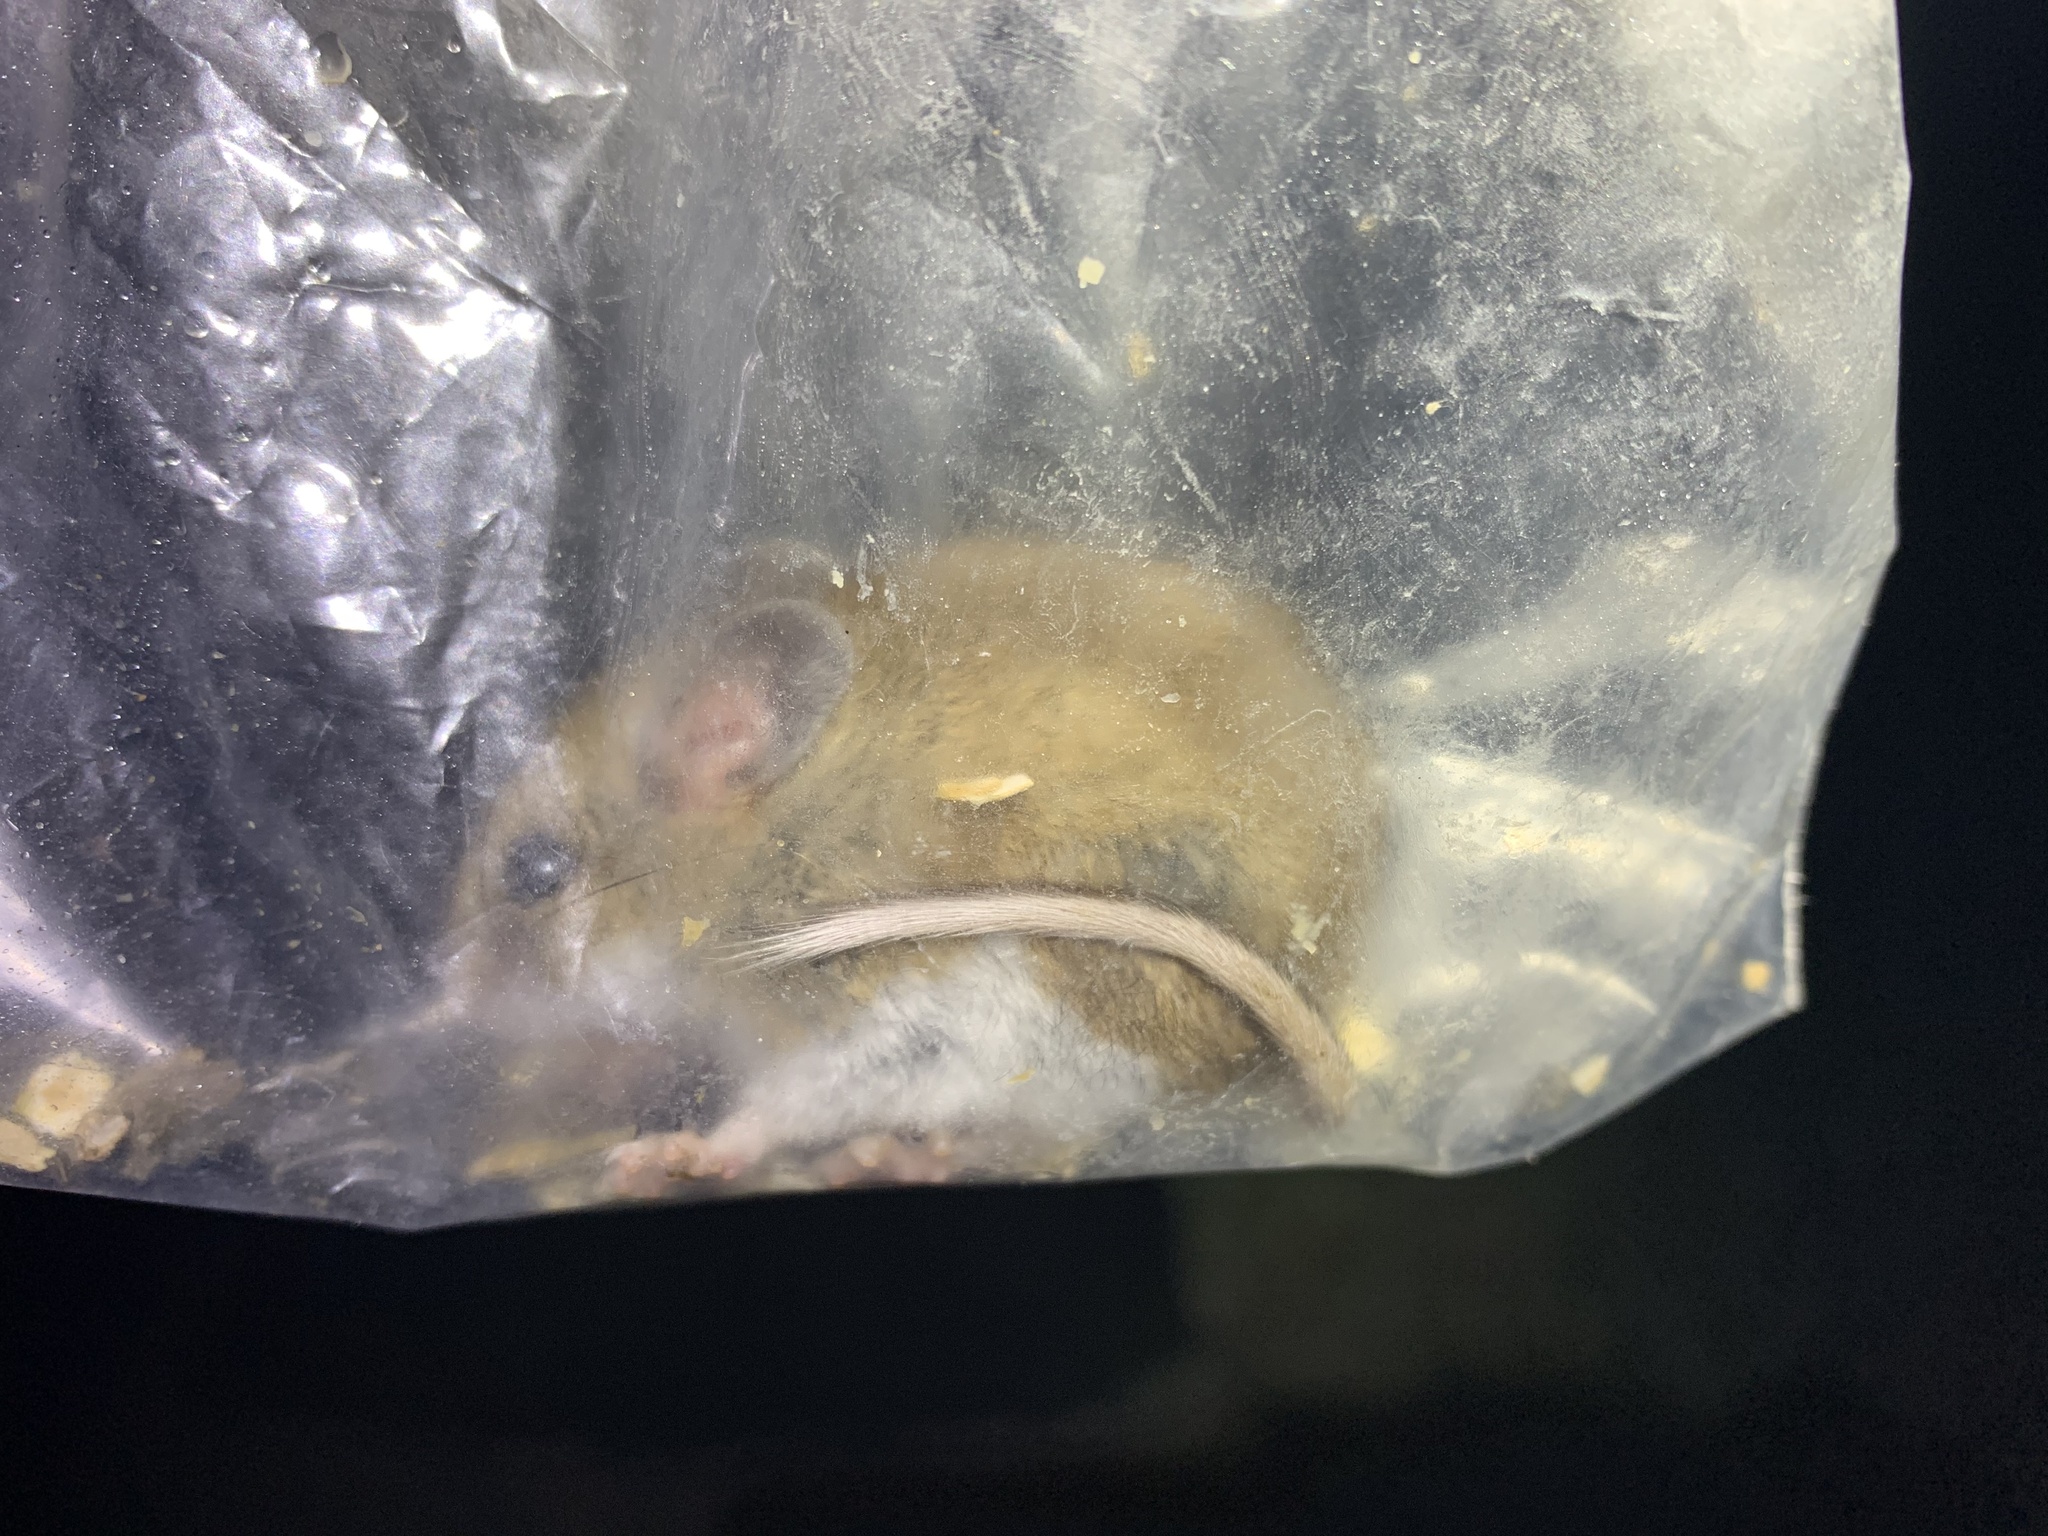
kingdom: Animalia
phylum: Chordata
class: Mammalia
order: Rodentia
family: Cricetidae
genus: Peromyscus
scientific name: Peromyscus maniculatus
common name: Deer mouse
